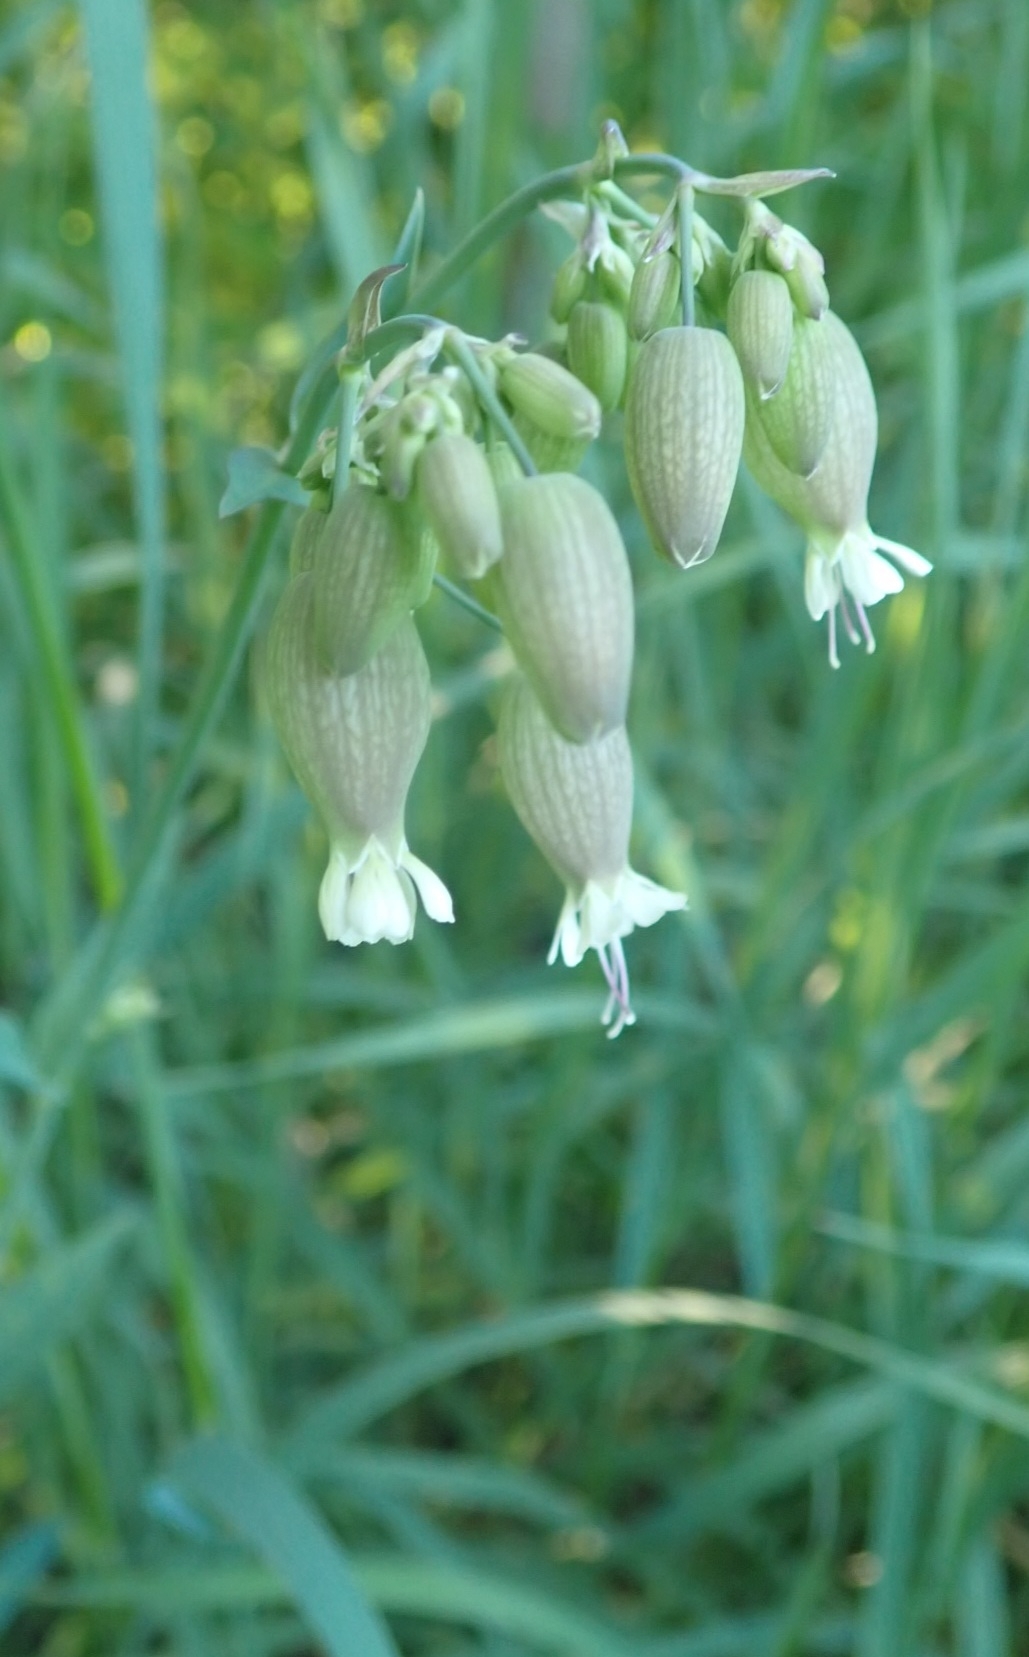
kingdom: Plantae
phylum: Tracheophyta
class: Magnoliopsida
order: Caryophyllales
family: Caryophyllaceae
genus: Silene
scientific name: Silene vulgaris
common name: Bladder campion
